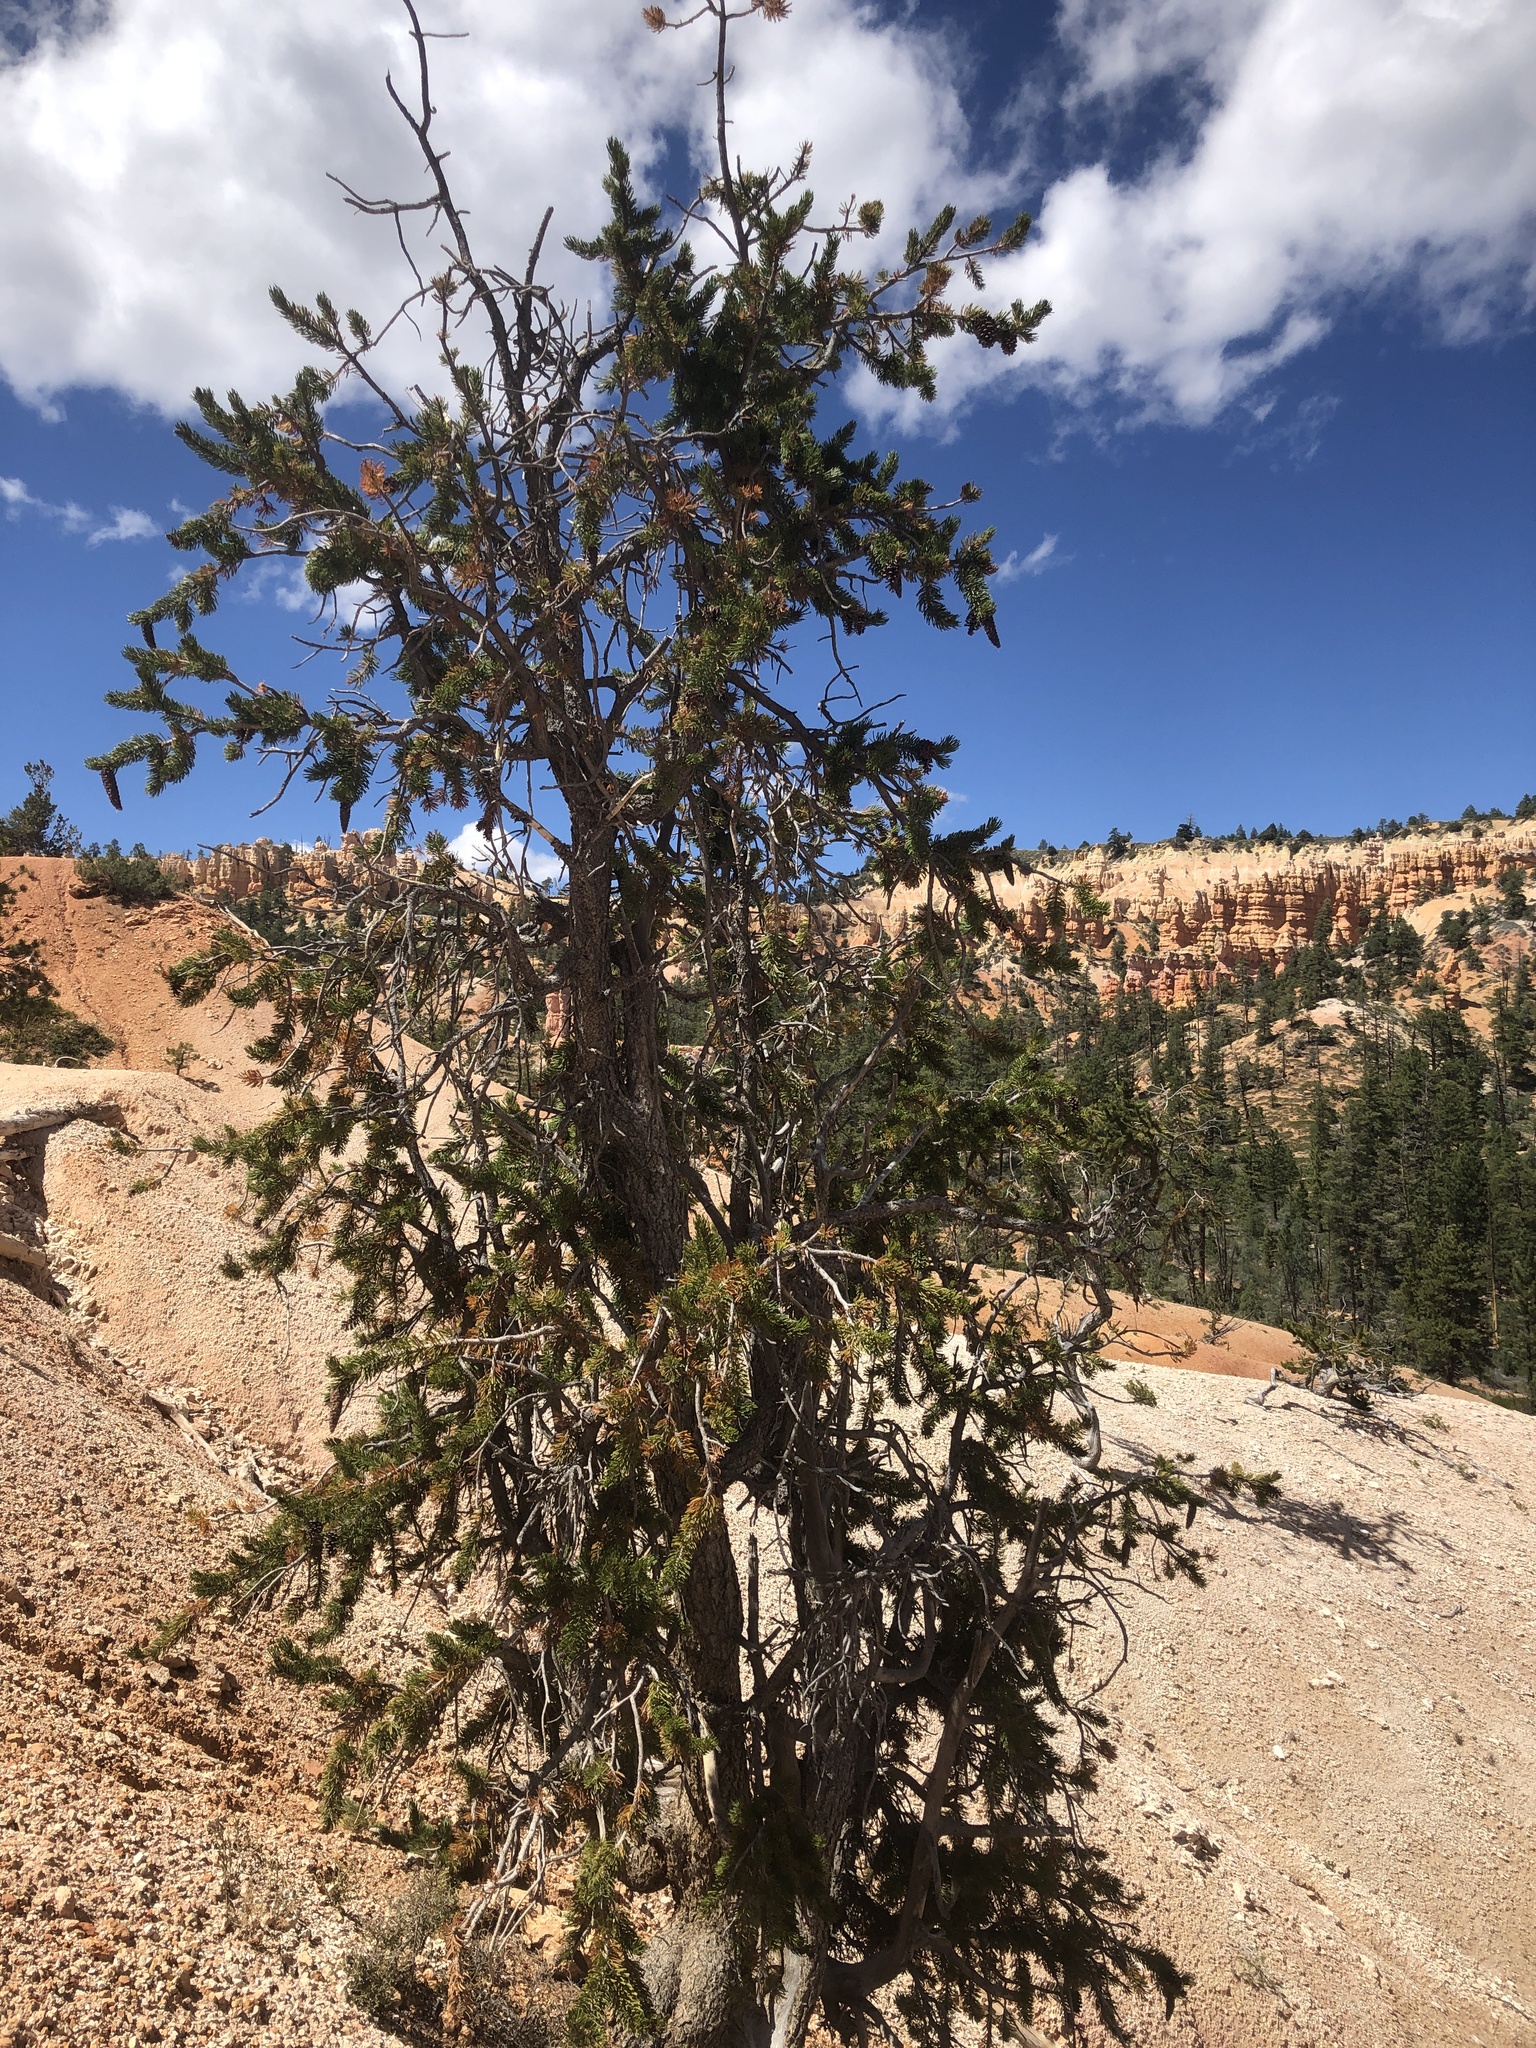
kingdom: Plantae
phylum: Tracheophyta
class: Pinopsida
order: Pinales
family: Pinaceae
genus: Pinus
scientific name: Pinus longaeva
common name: Intermountain bristlecone pine
